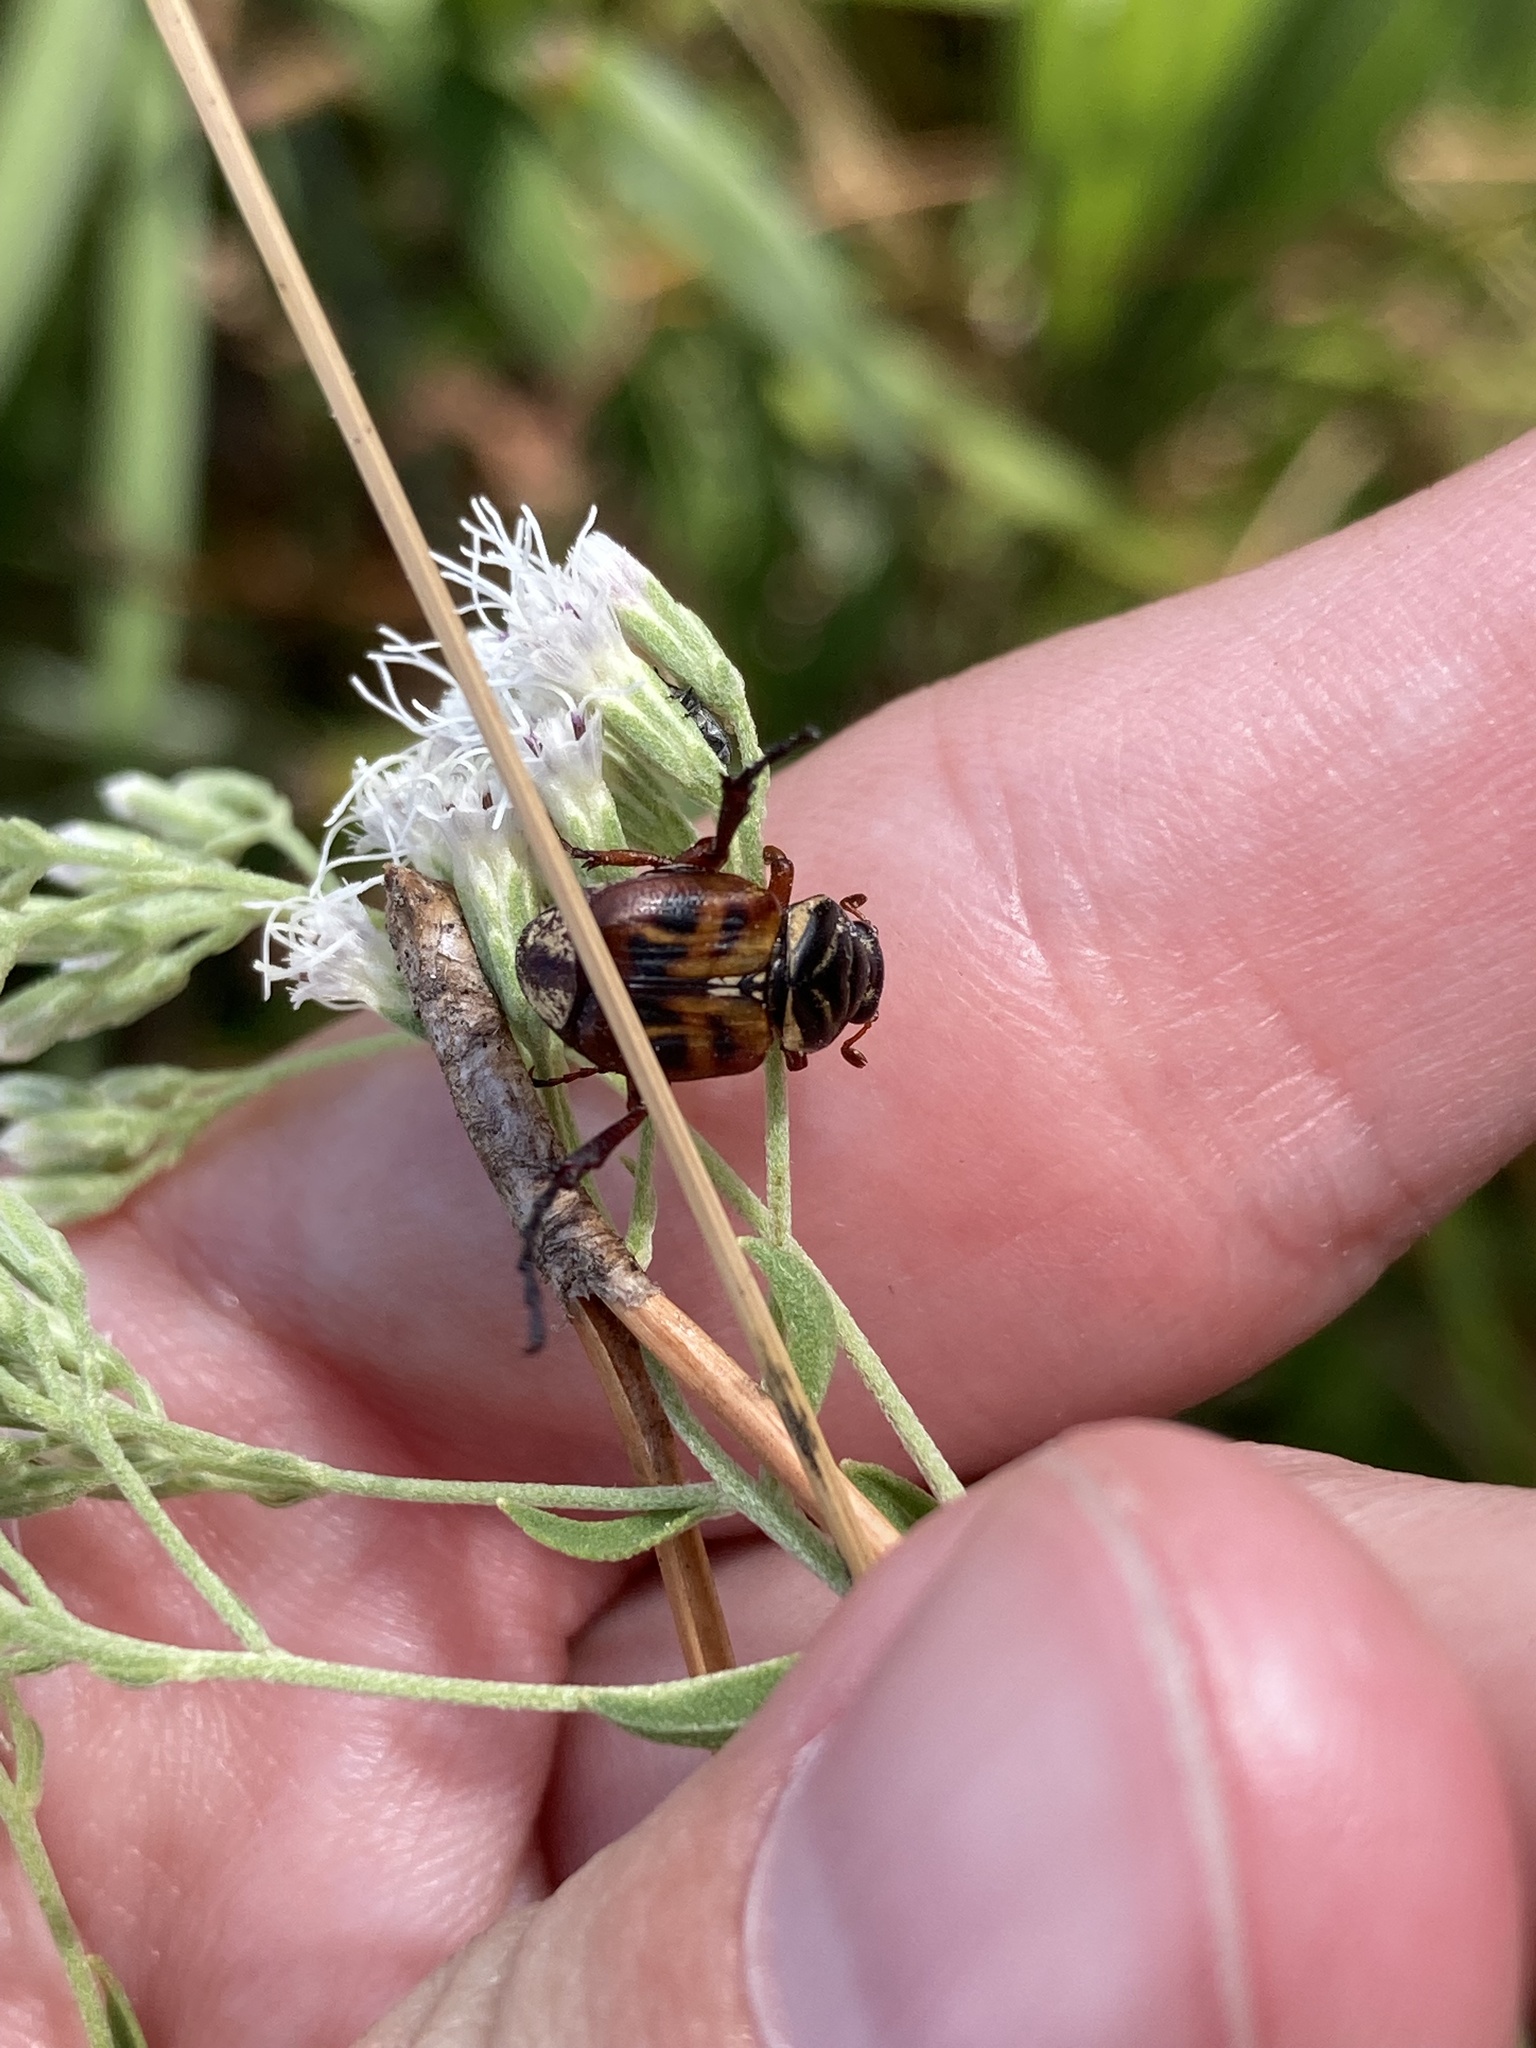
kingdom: Animalia
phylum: Arthropoda
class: Insecta
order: Coleoptera
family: Scarabaeidae
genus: Trigonopeltastes
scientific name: Trigonopeltastes delta
